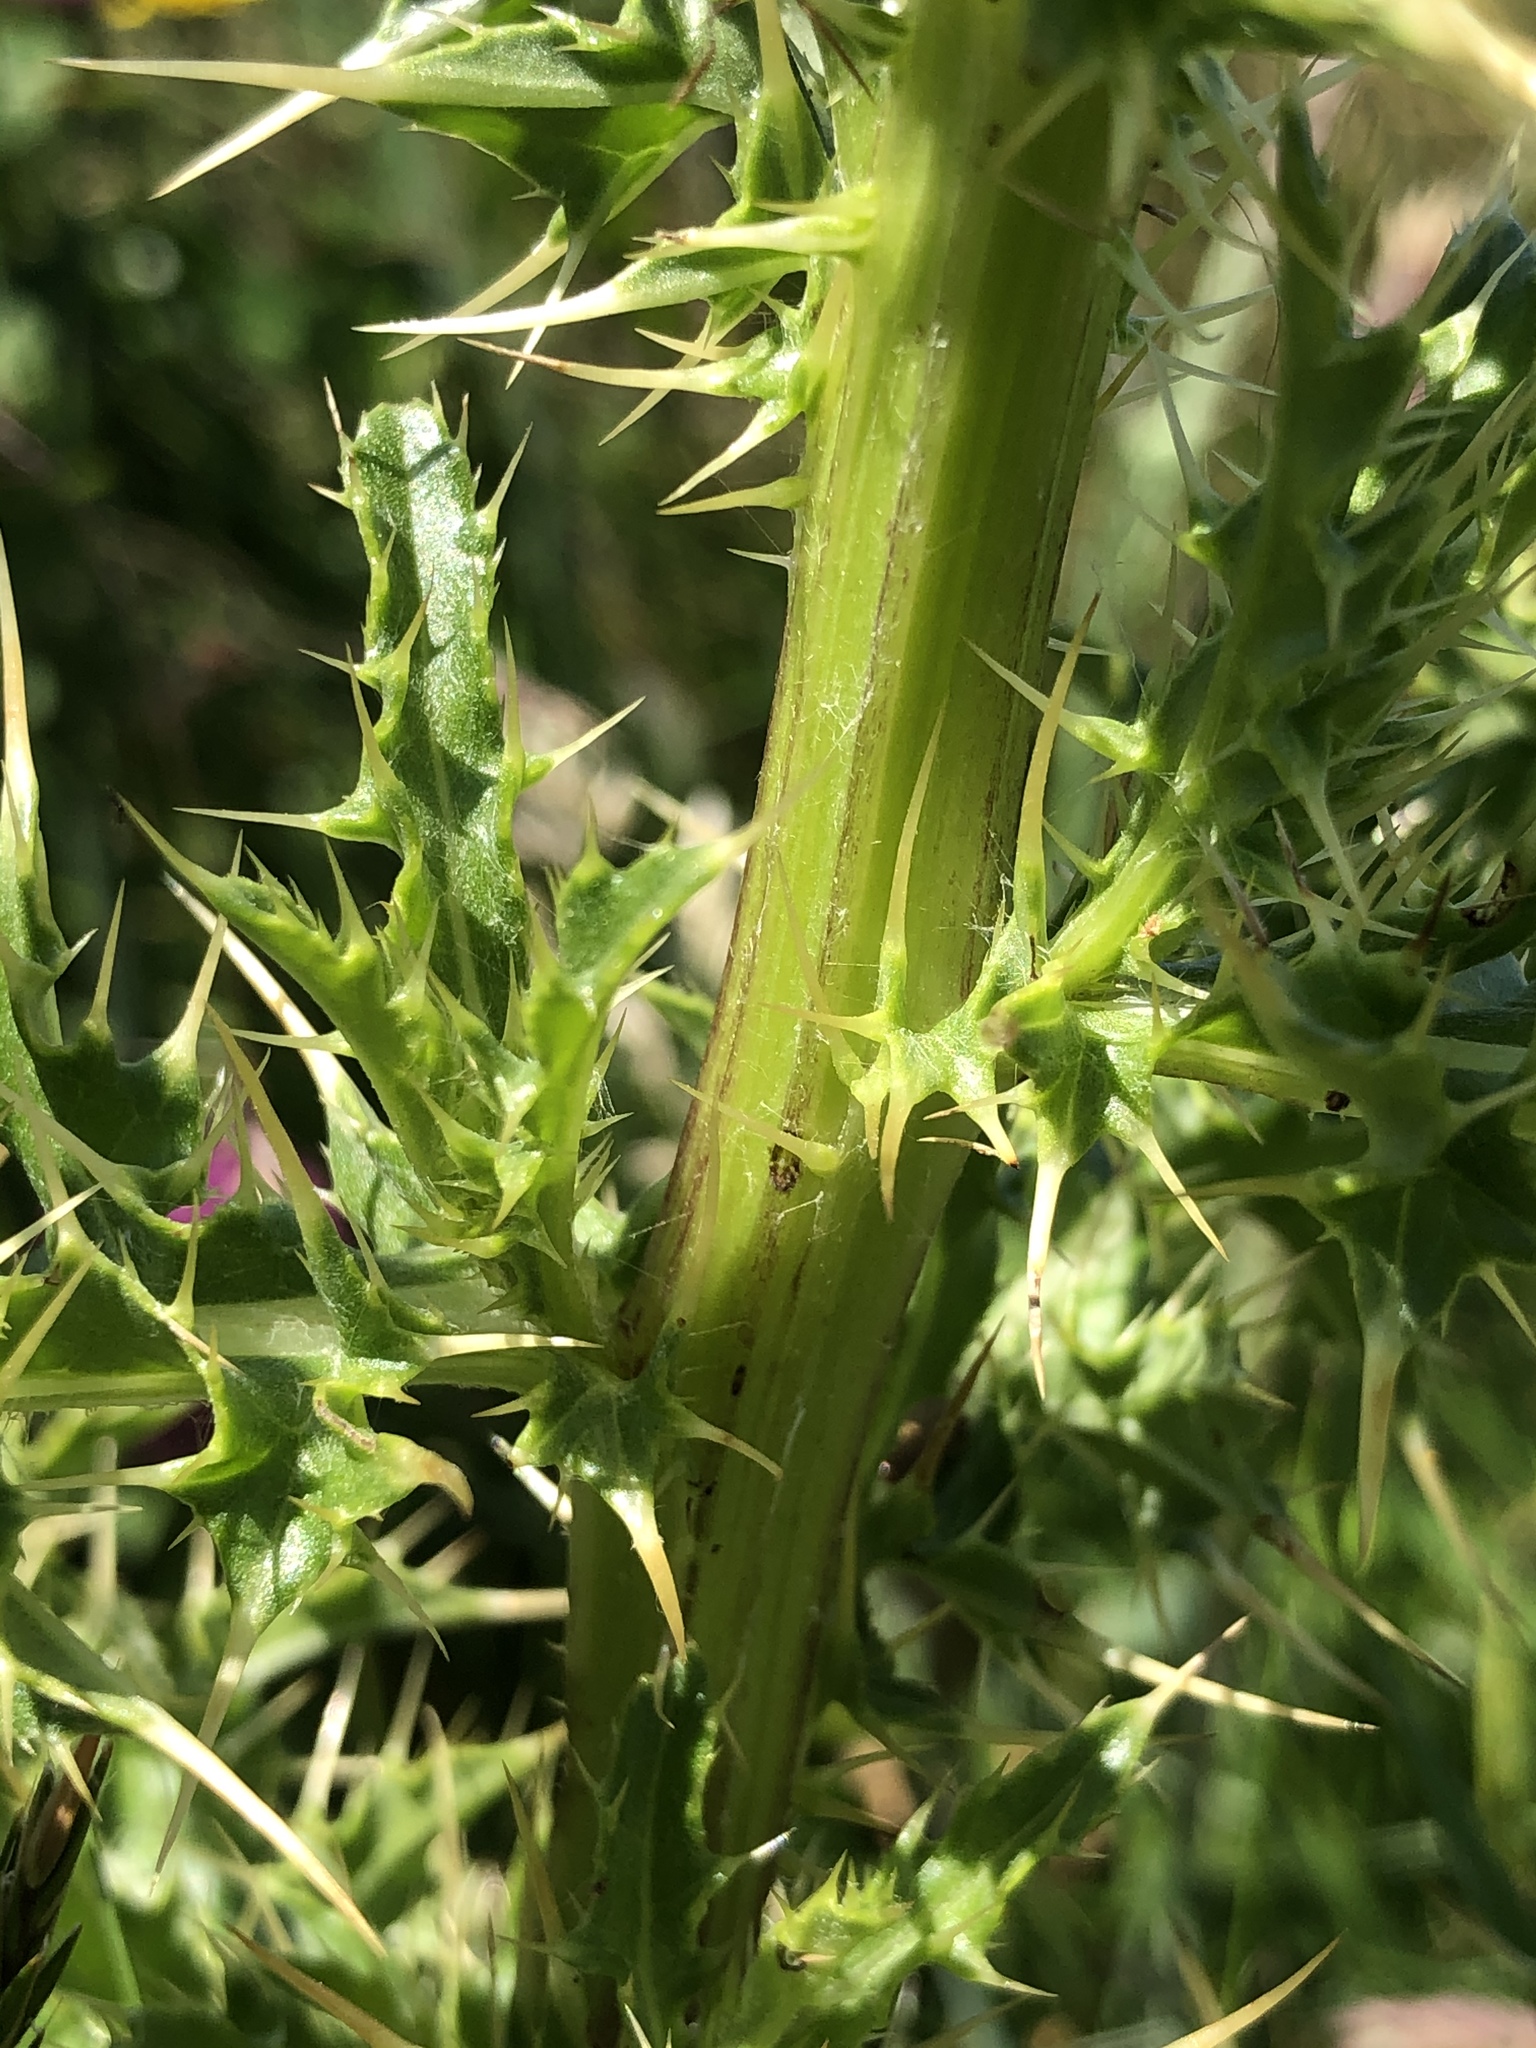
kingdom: Plantae
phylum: Tracheophyta
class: Magnoliopsida
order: Asterales
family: Asteraceae
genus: Cirsium
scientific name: Cirsium arvense
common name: Creeping thistle
